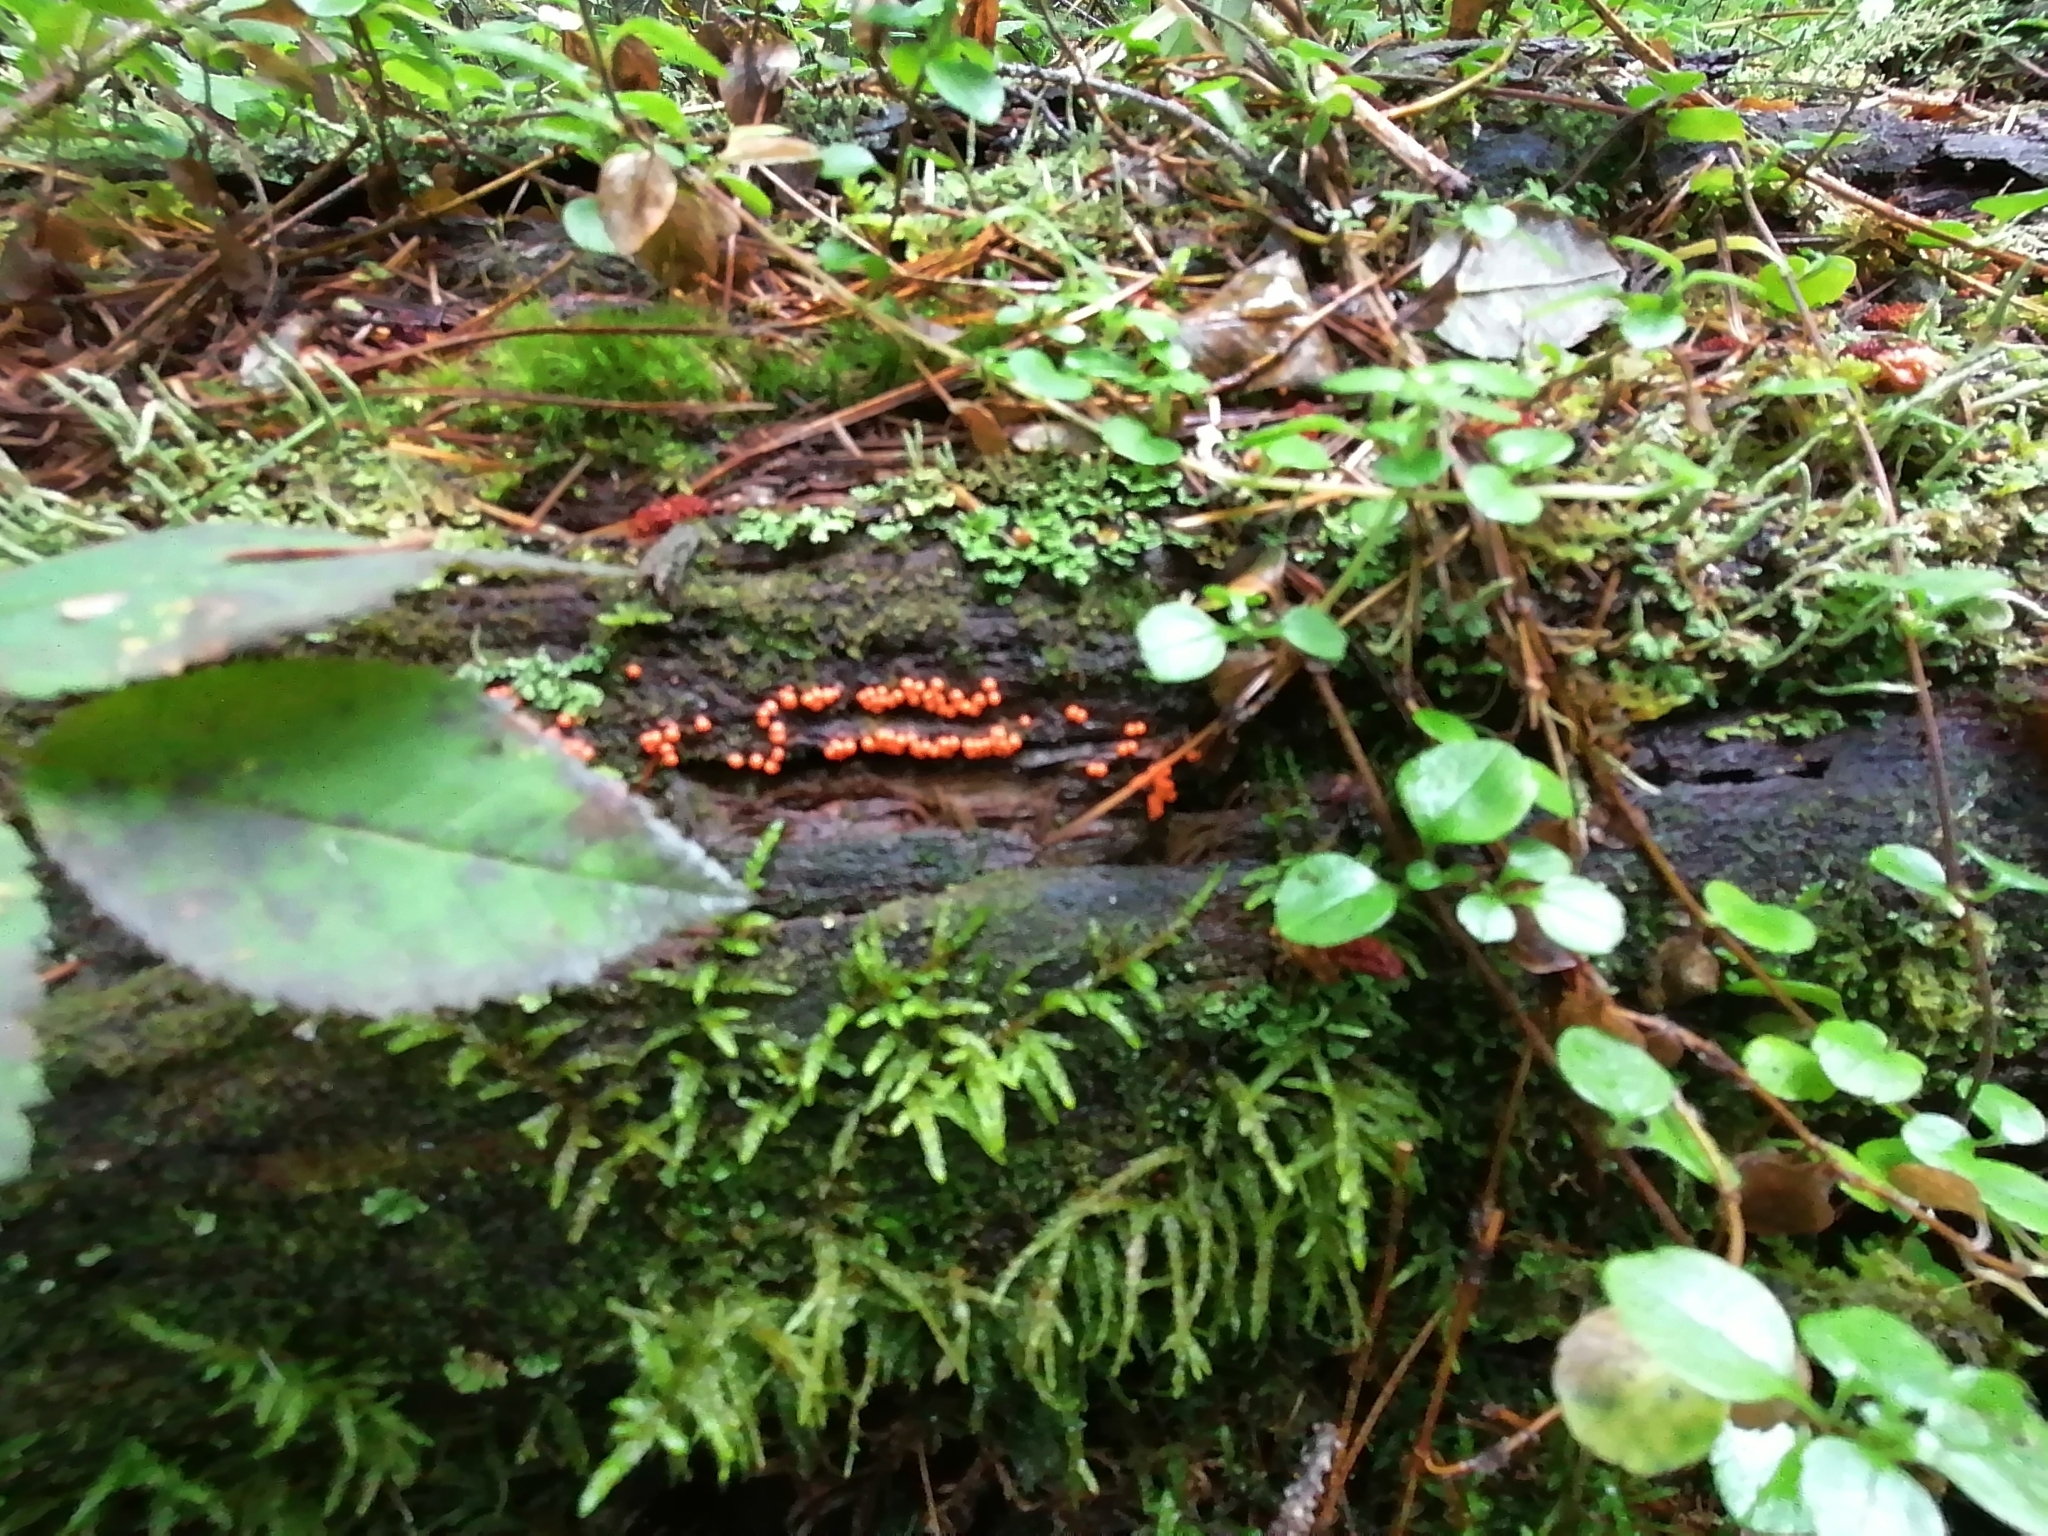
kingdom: Protozoa
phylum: Mycetozoa
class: Myxomycetes
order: Trichiales
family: Arcyriaceae
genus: Hemitrichia
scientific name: Hemitrichia decipiens
